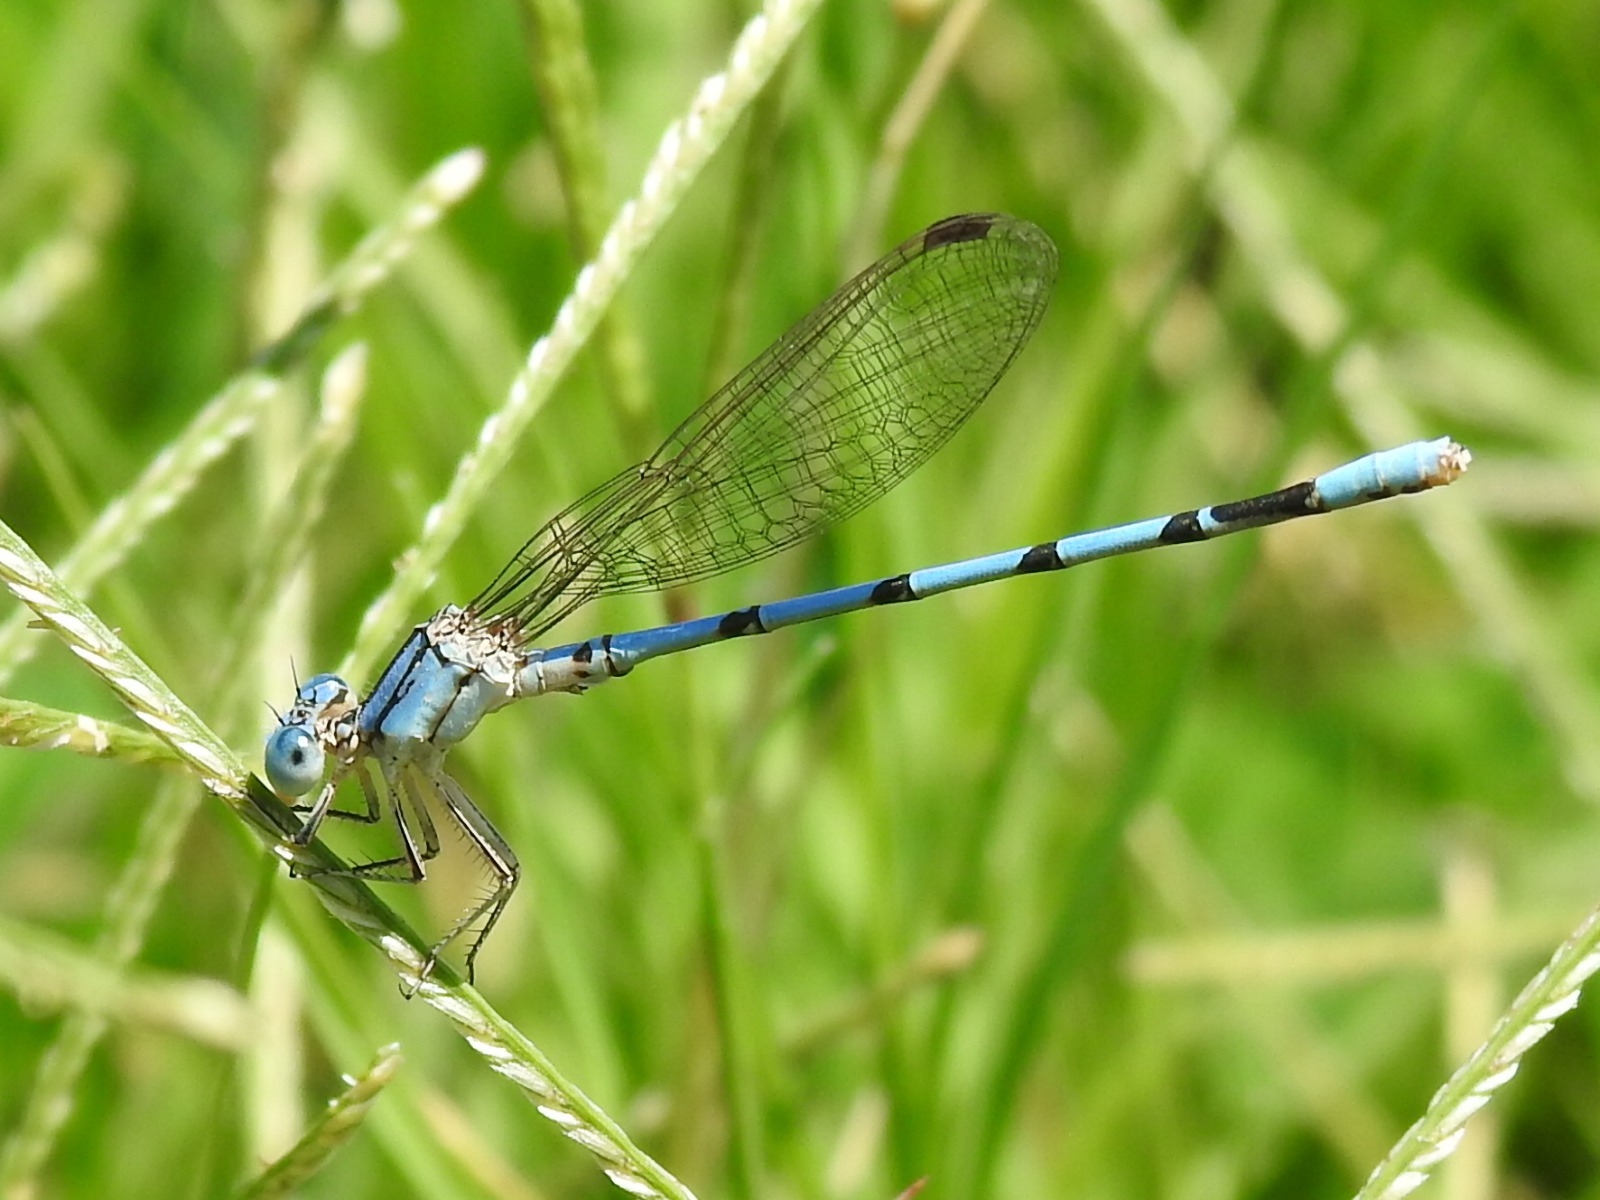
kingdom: Animalia
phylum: Arthropoda
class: Insecta
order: Odonata
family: Coenagrionidae
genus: Argia
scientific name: Argia nahuana
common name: Aztec dancer
